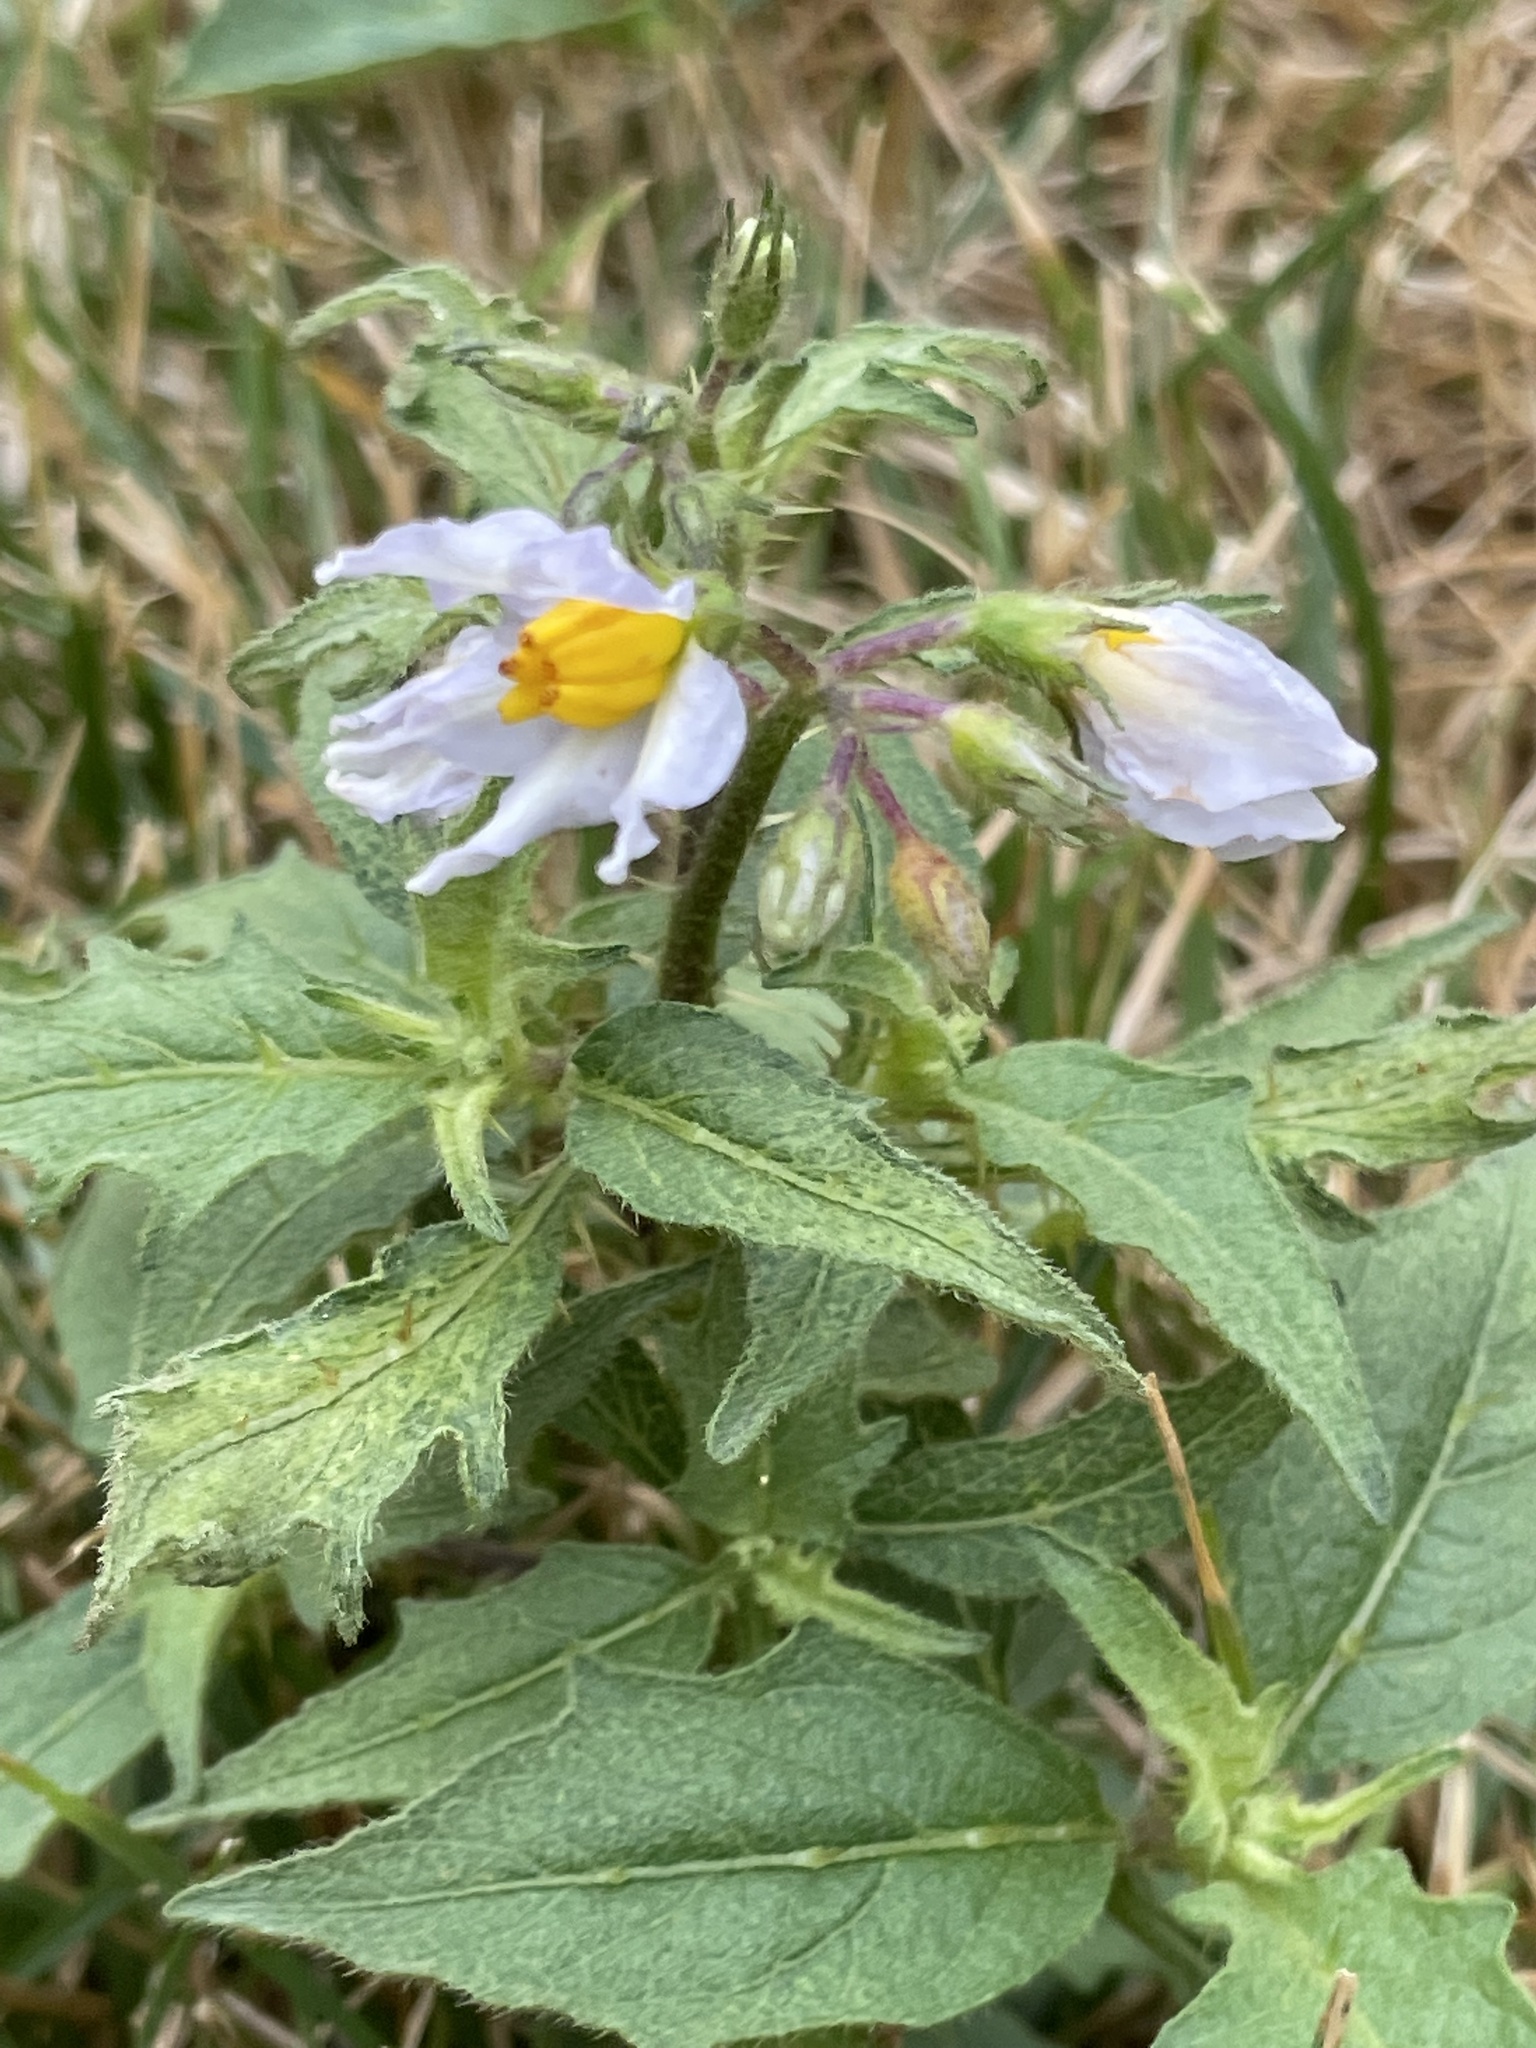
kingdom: Plantae
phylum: Tracheophyta
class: Magnoliopsida
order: Solanales
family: Solanaceae
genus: Solanum
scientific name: Solanum carolinense
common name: Horse-nettle
